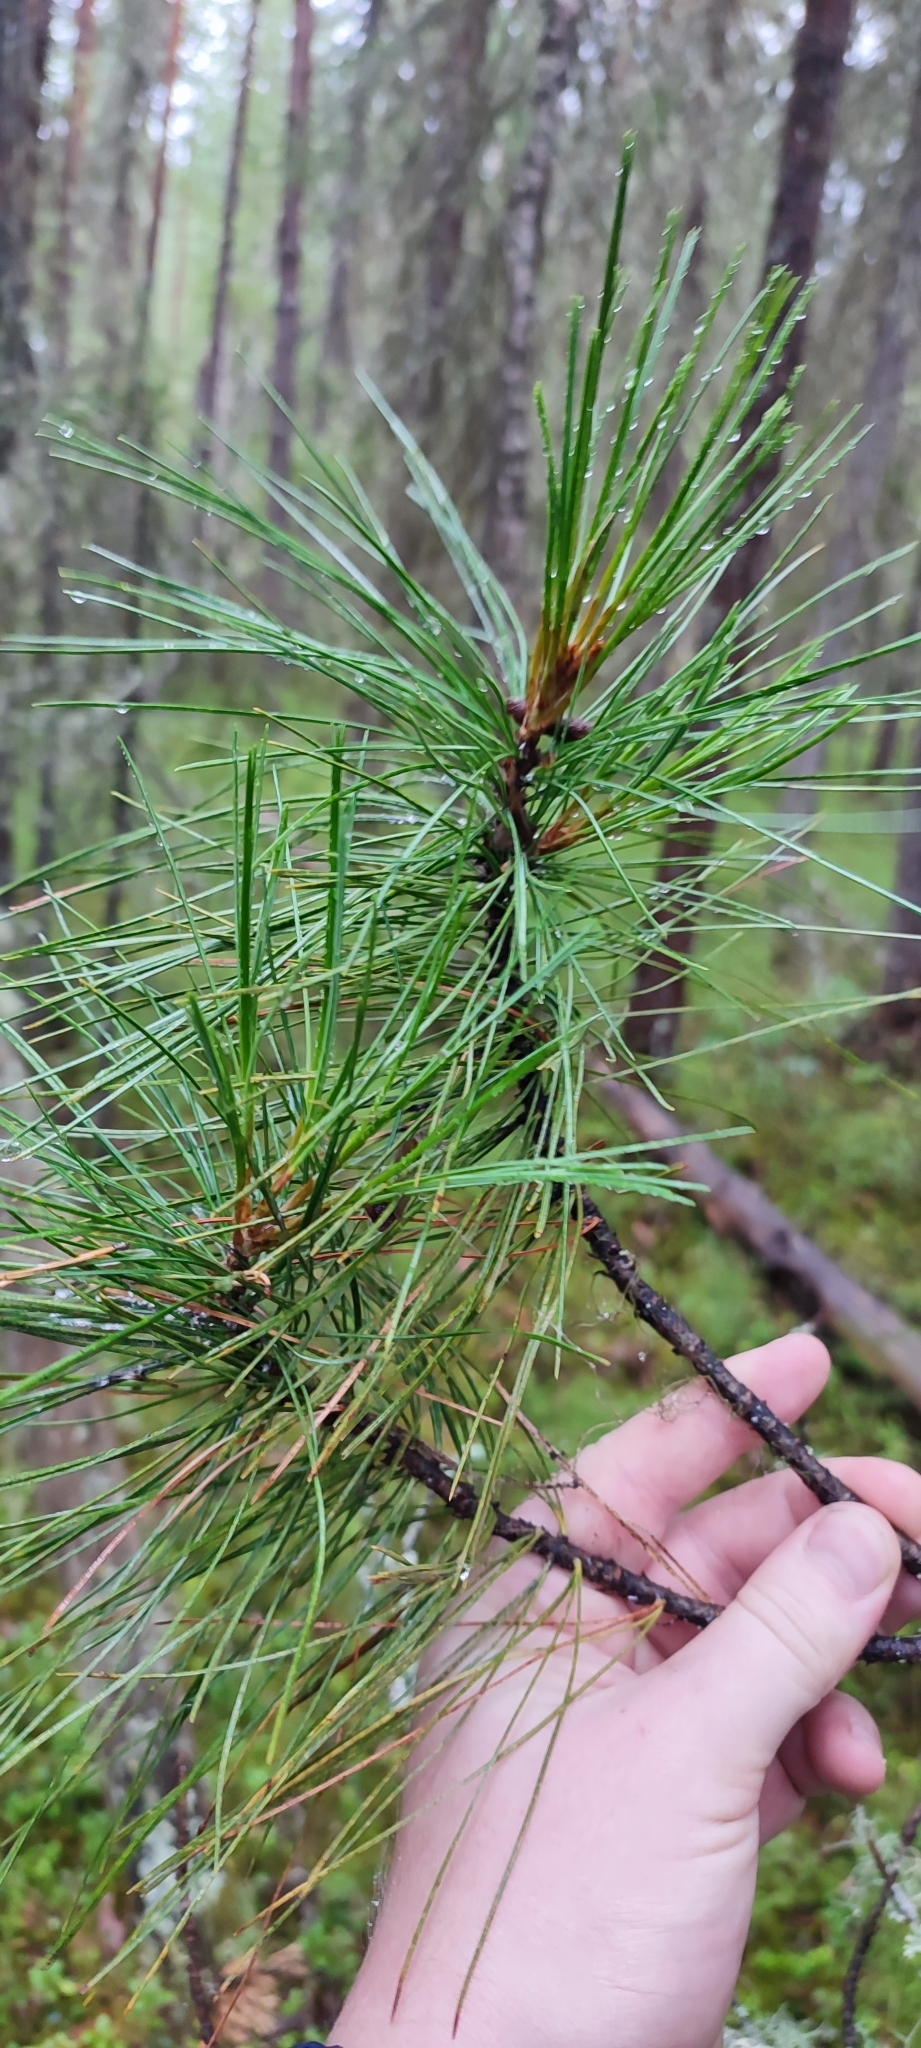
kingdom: Plantae
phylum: Tracheophyta
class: Pinopsida
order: Pinales
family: Pinaceae
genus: Pinus
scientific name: Pinus sibirica
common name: Siberian pine
